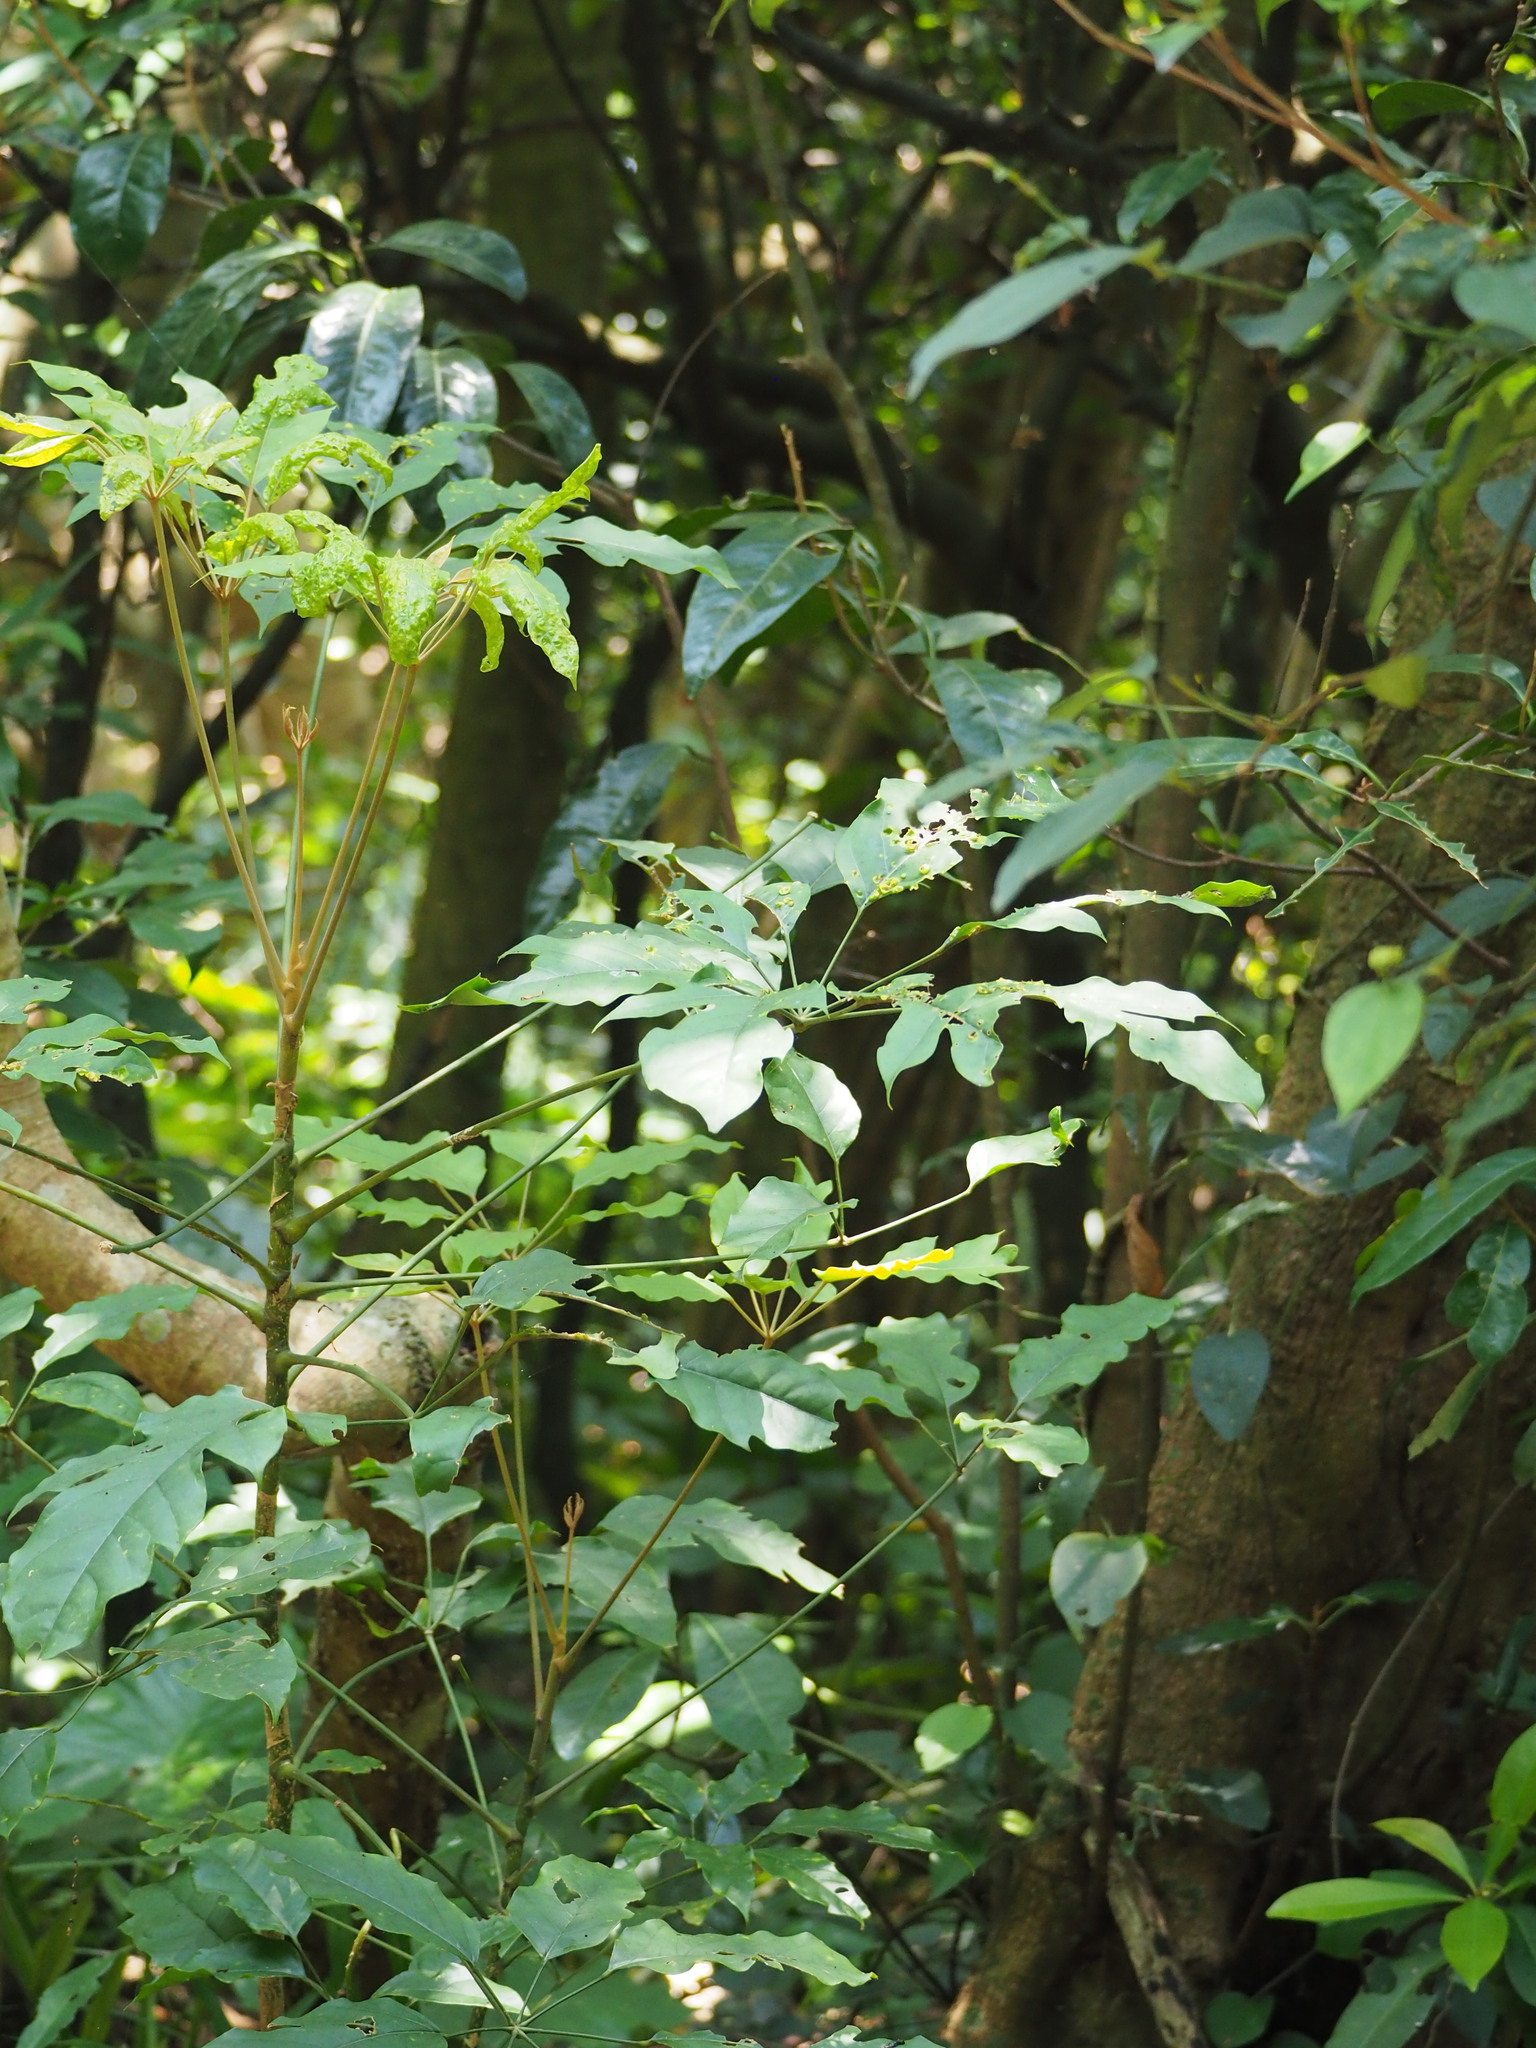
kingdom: Plantae
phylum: Tracheophyta
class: Magnoliopsida
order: Apiales
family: Araliaceae
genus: Heptapleurum
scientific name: Heptapleurum heptaphyllum
